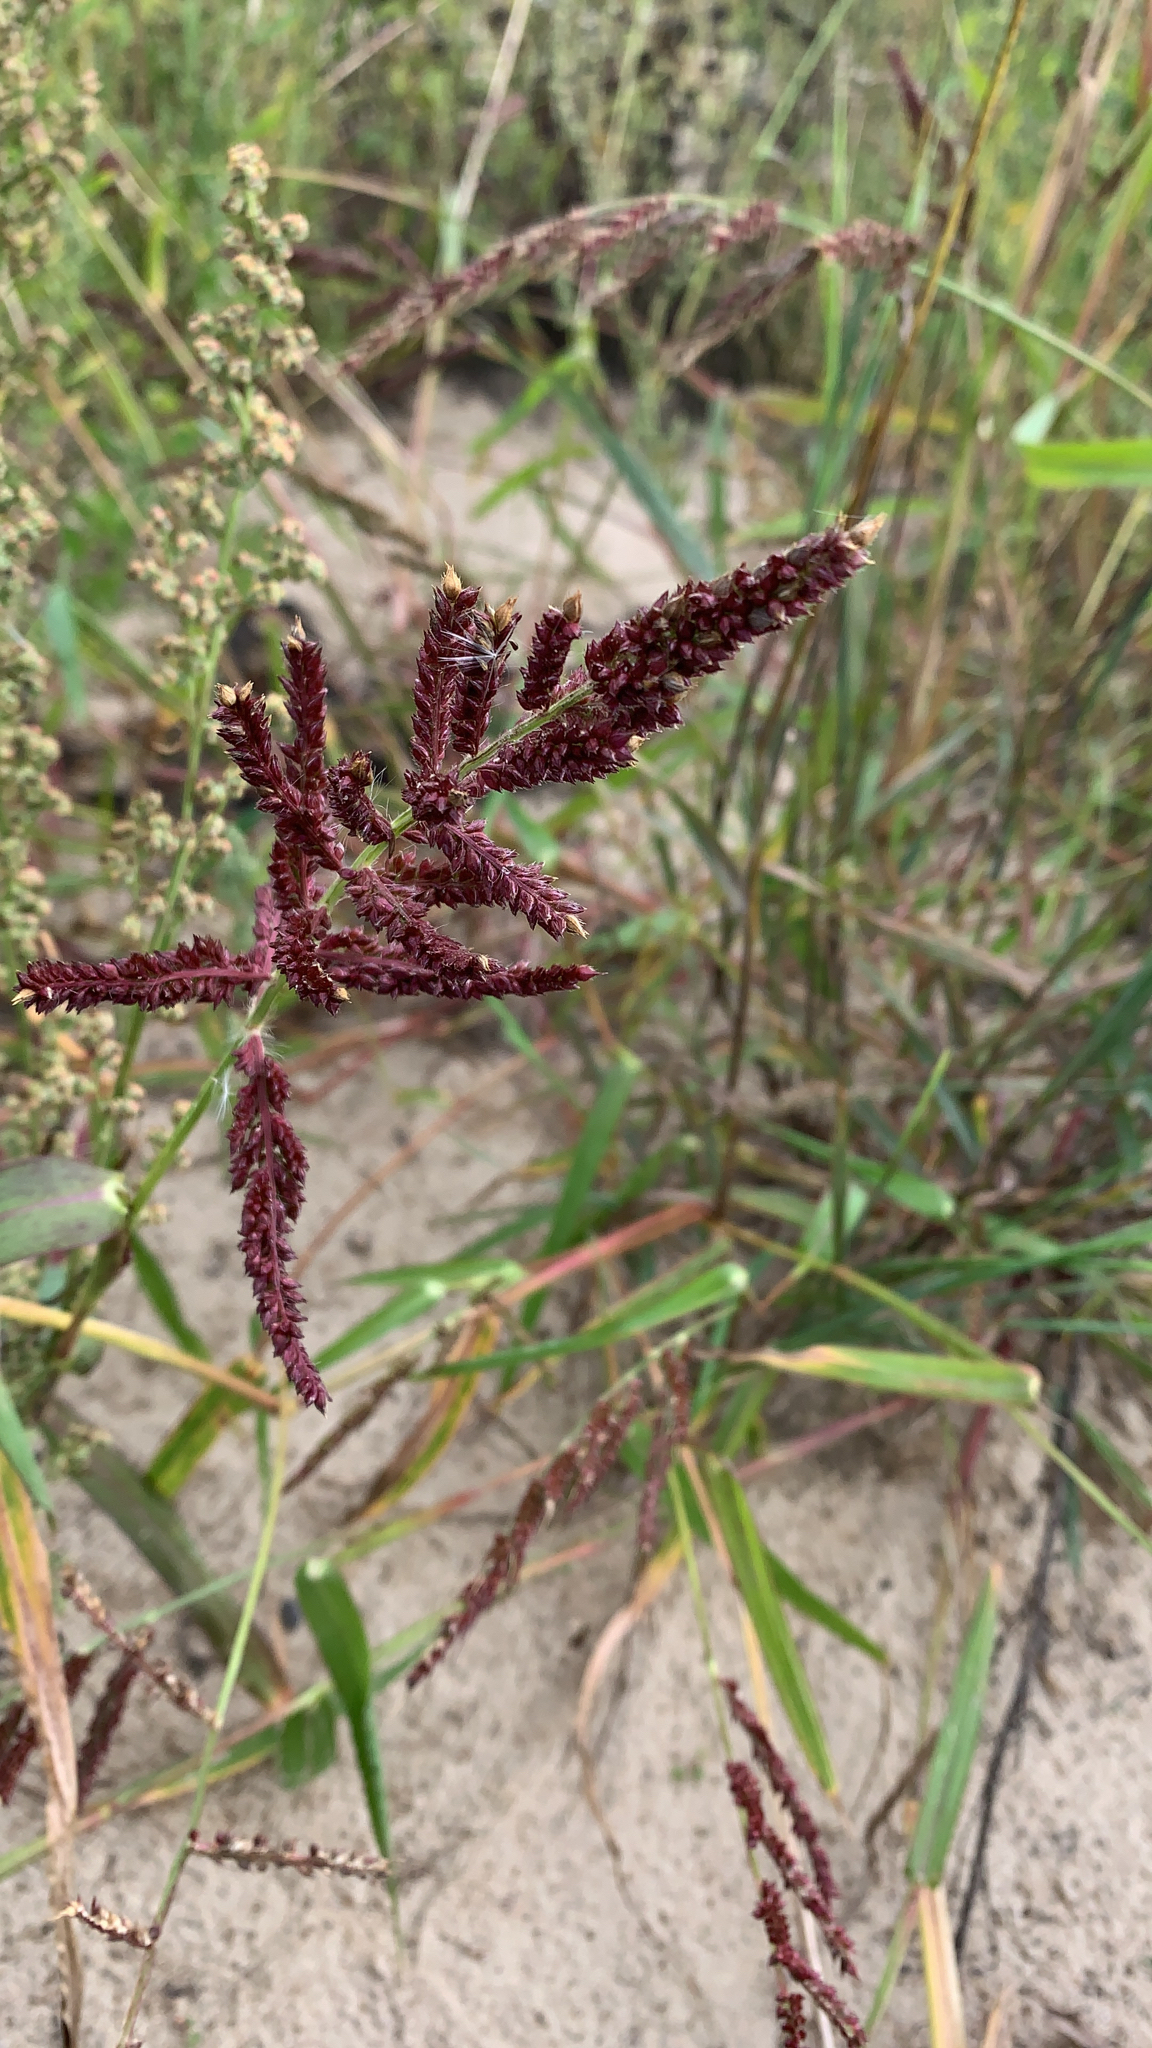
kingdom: Plantae
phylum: Tracheophyta
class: Liliopsida
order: Poales
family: Poaceae
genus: Echinochloa
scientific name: Echinochloa crus-galli
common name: Cockspur
